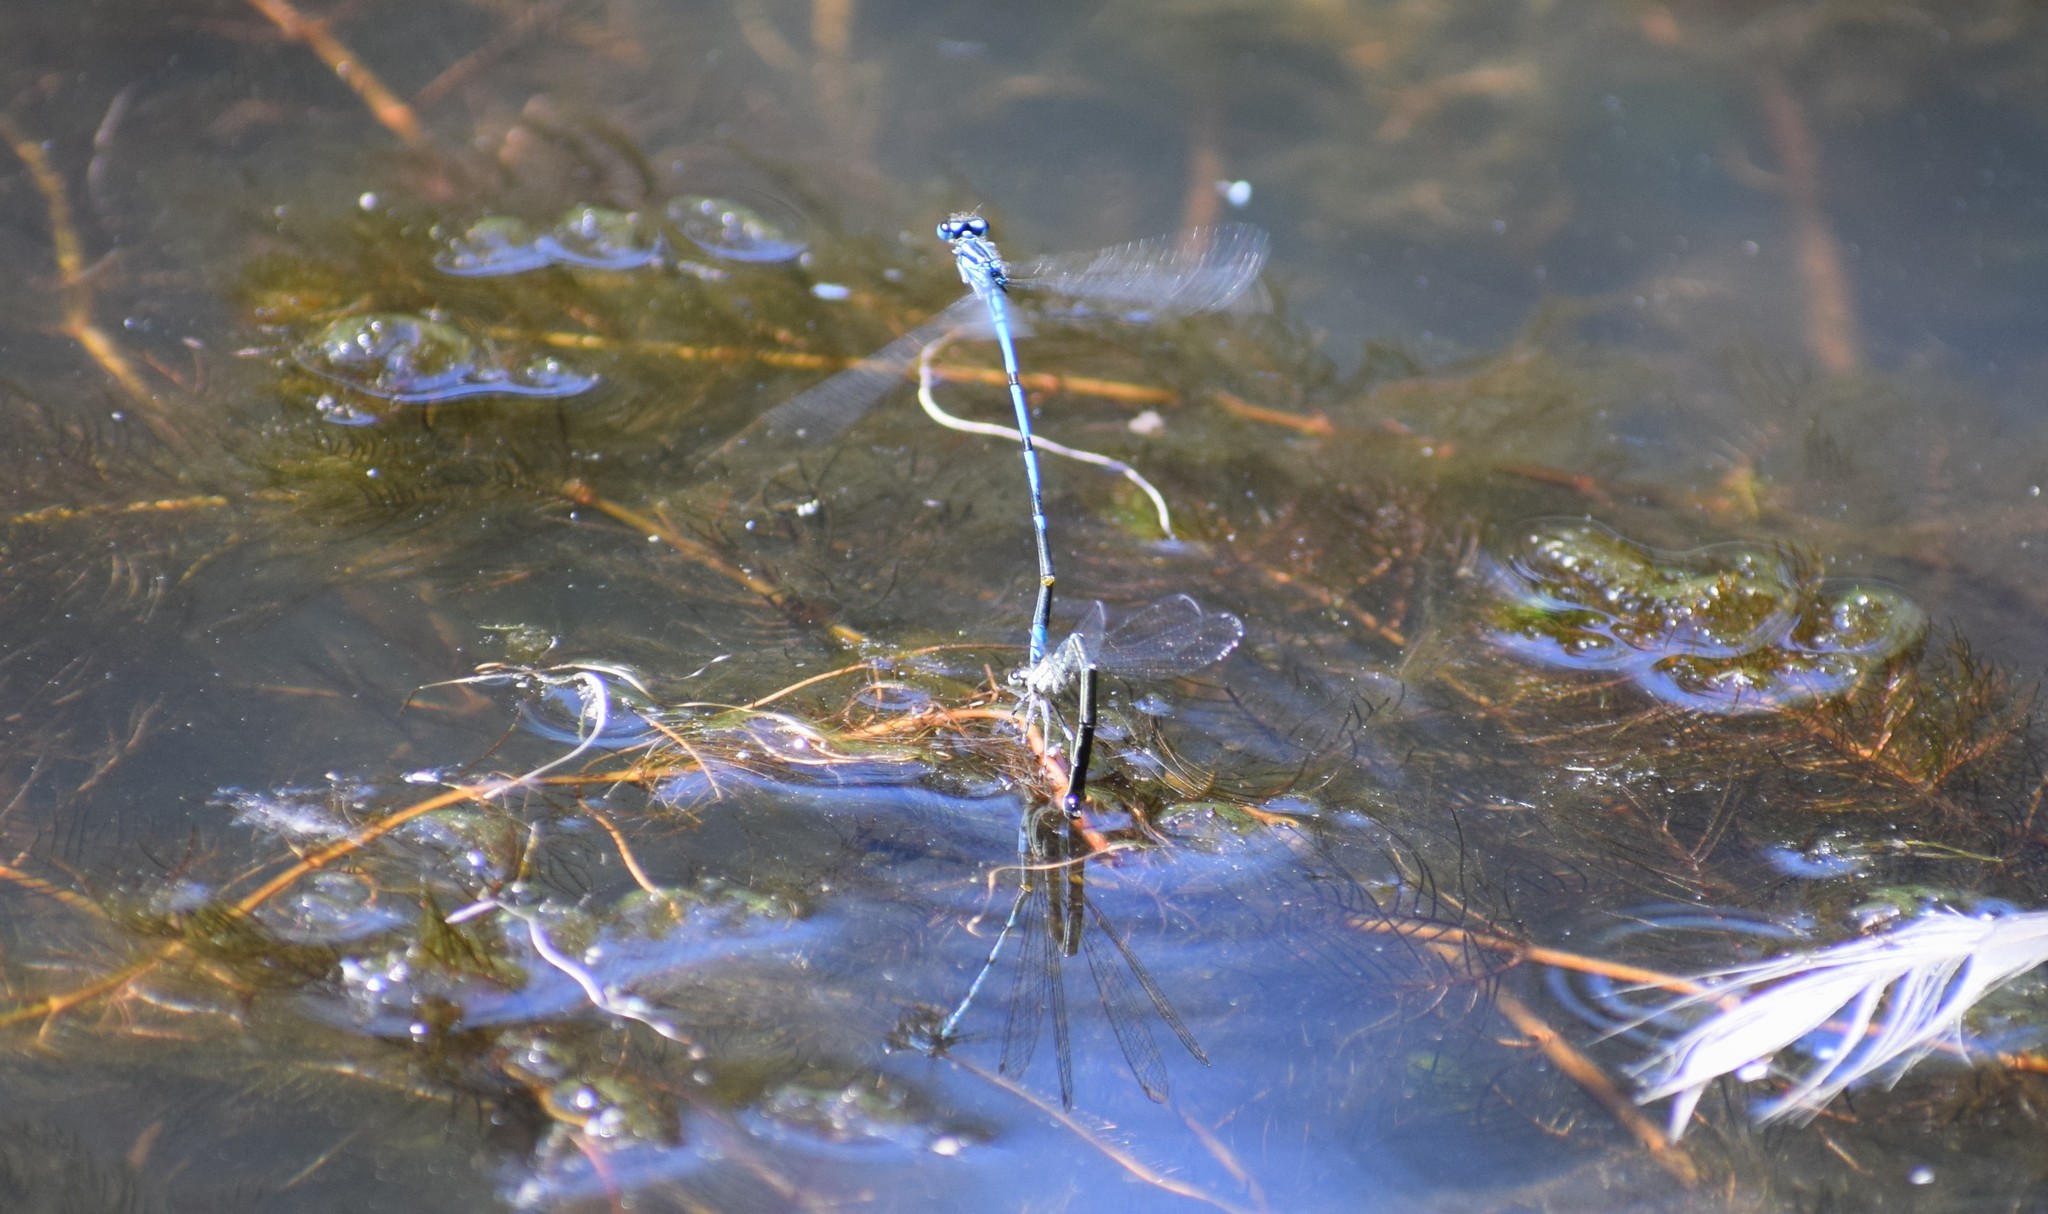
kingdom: Animalia
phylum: Arthropoda
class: Insecta
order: Odonata
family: Coenagrionidae
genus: Coenagrion
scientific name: Coenagrion puella
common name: Azure damselfly
